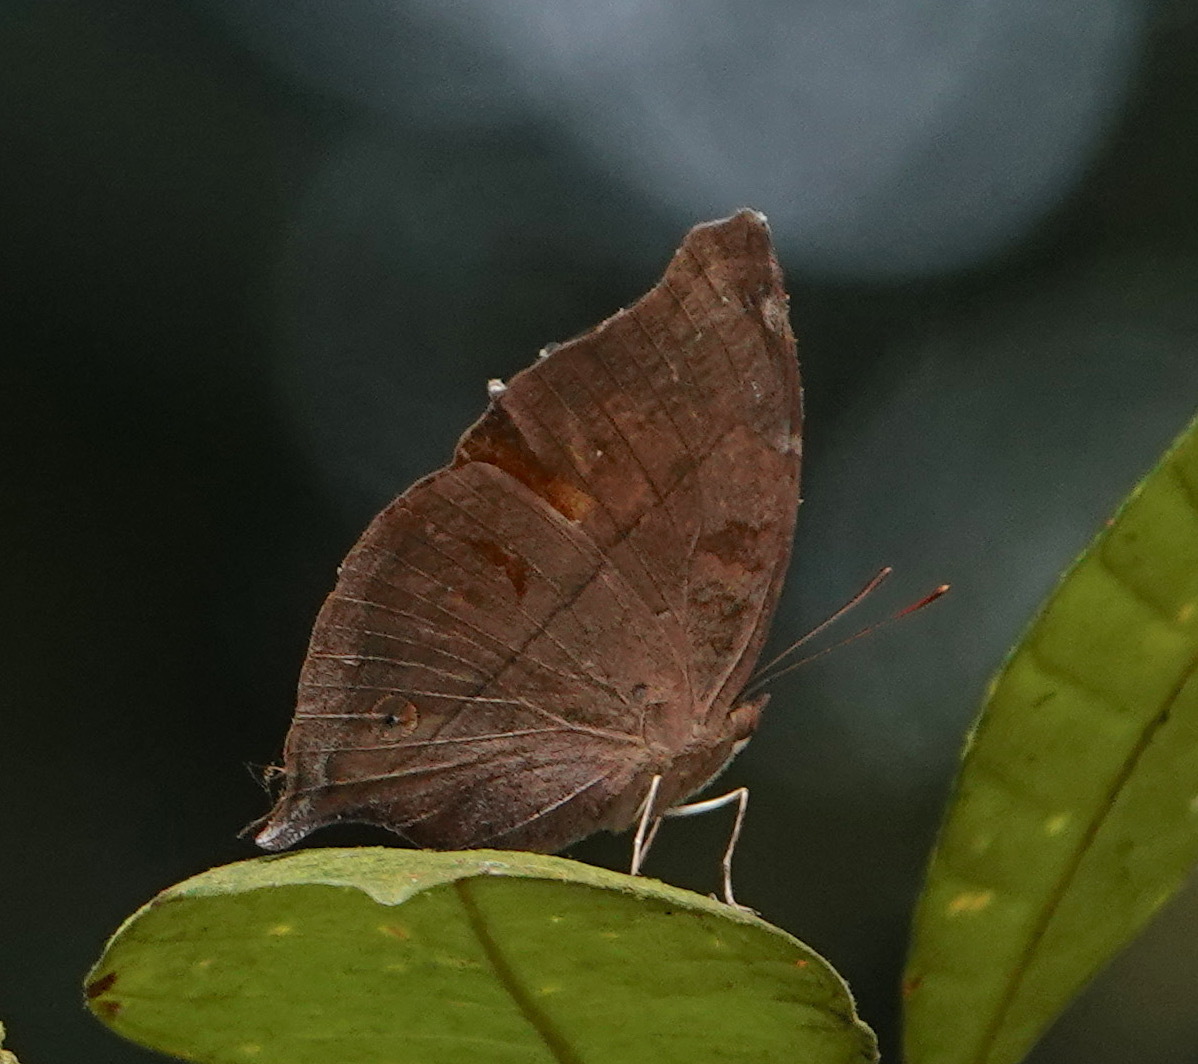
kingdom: Animalia
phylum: Arthropoda
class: Insecta
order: Lepidoptera
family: Nymphalidae
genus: Doleschallia
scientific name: Doleschallia bisaltide
